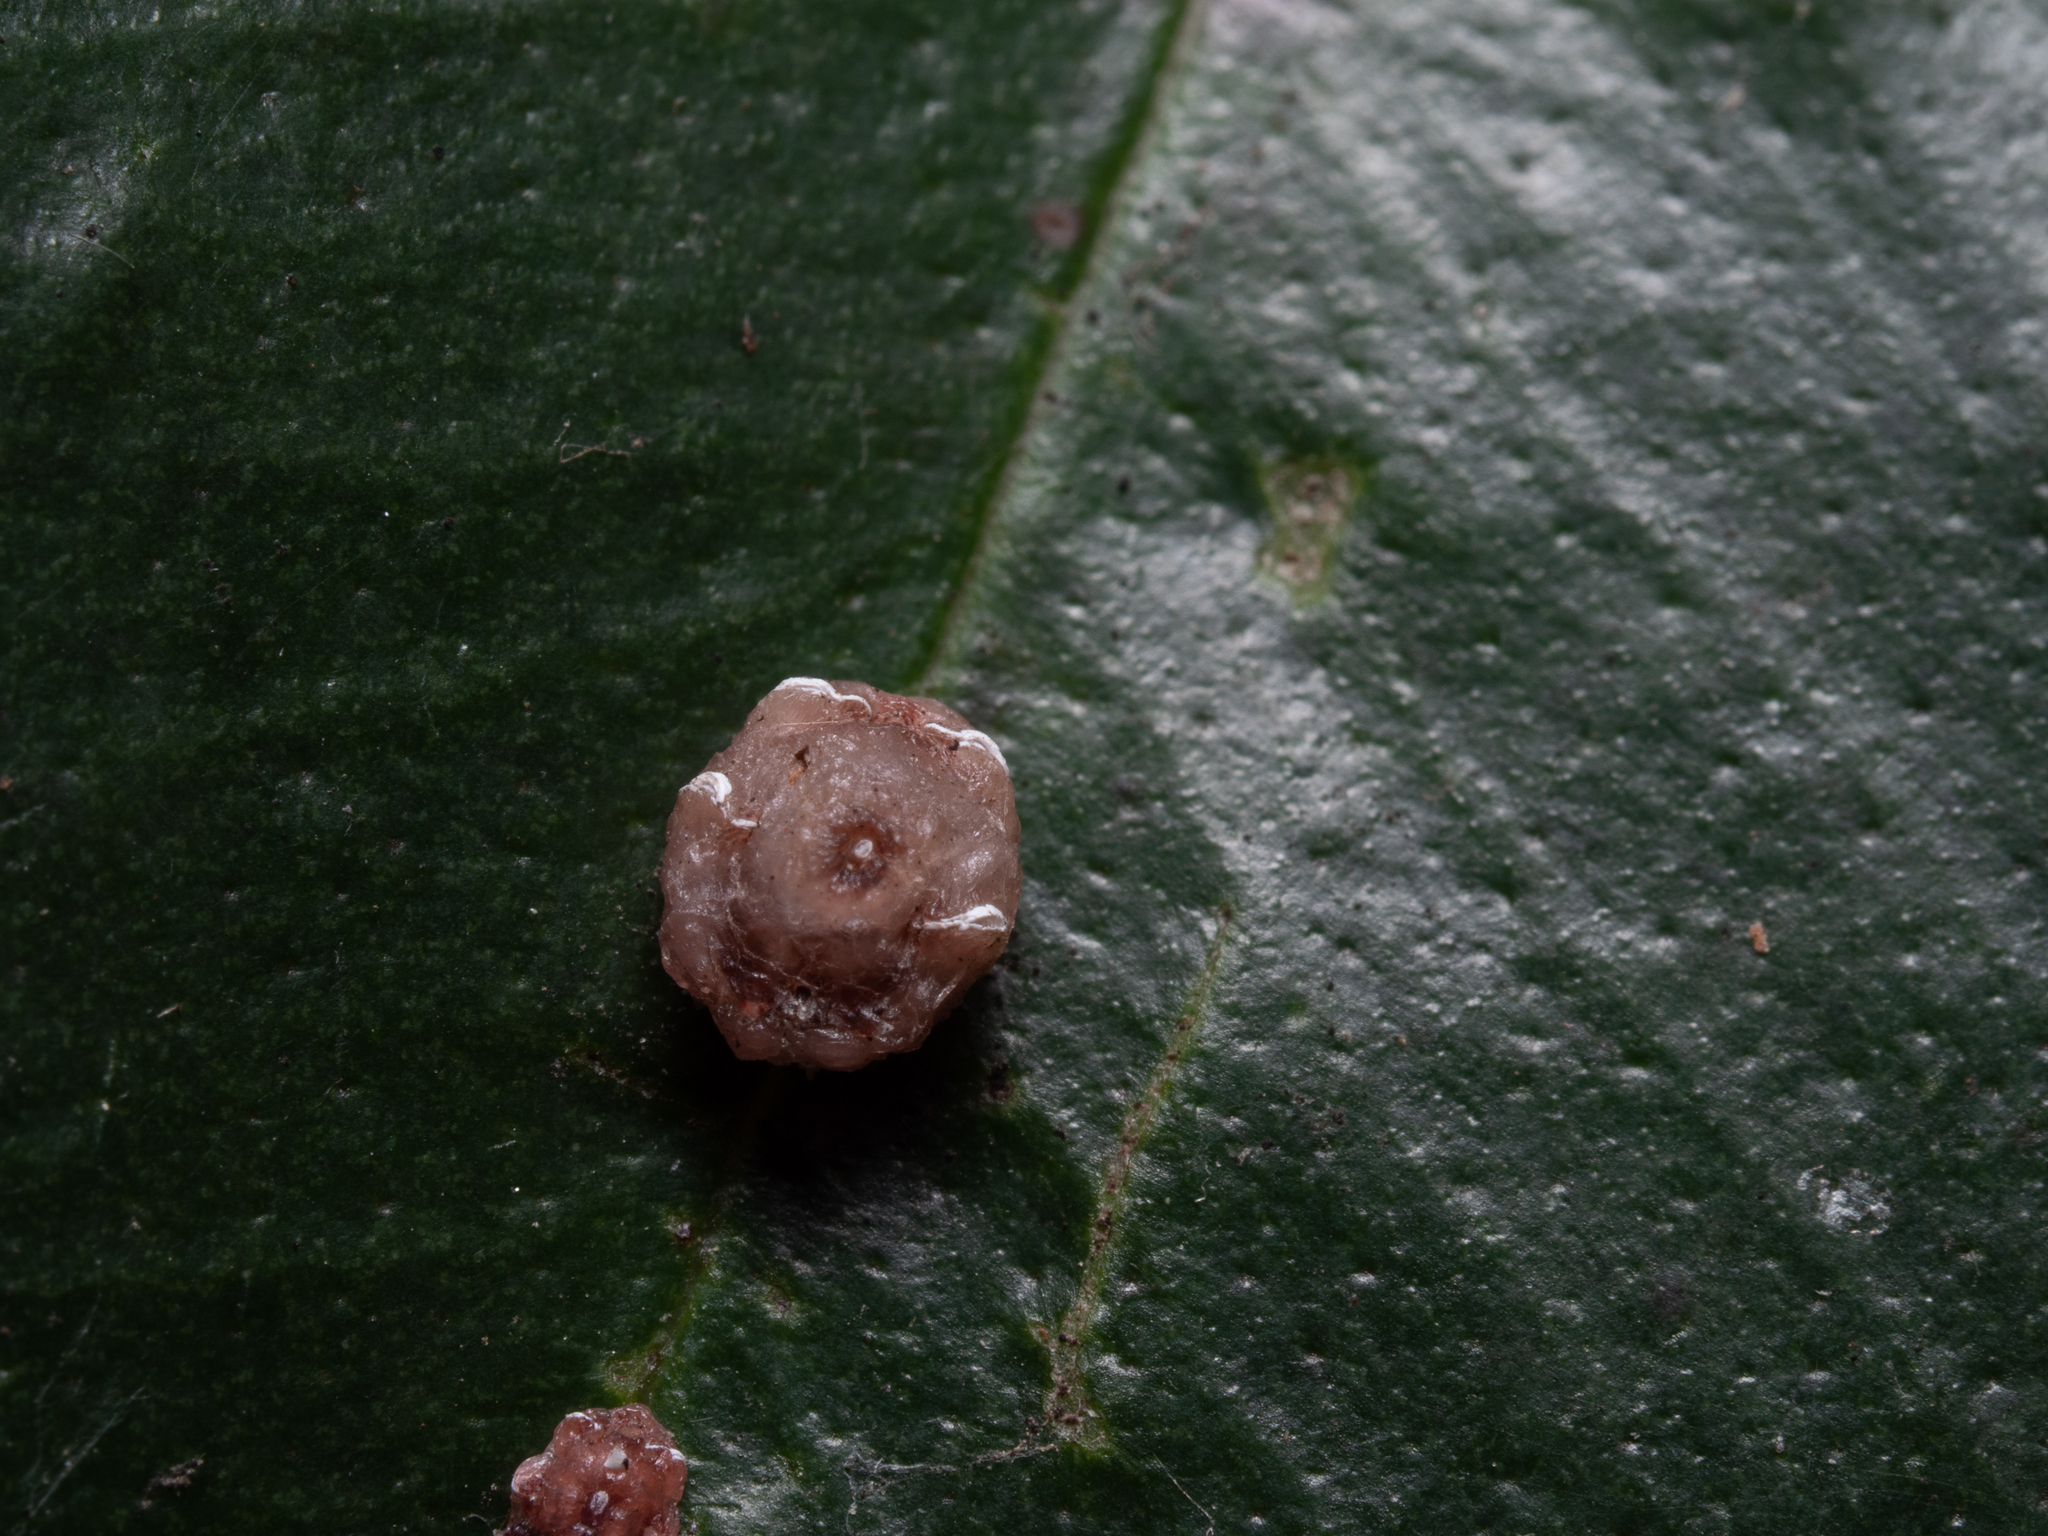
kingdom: Animalia
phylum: Arthropoda
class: Insecta
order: Hemiptera
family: Coccidae
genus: Ceroplastes
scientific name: Ceroplastes rubens
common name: Pink wax scale
